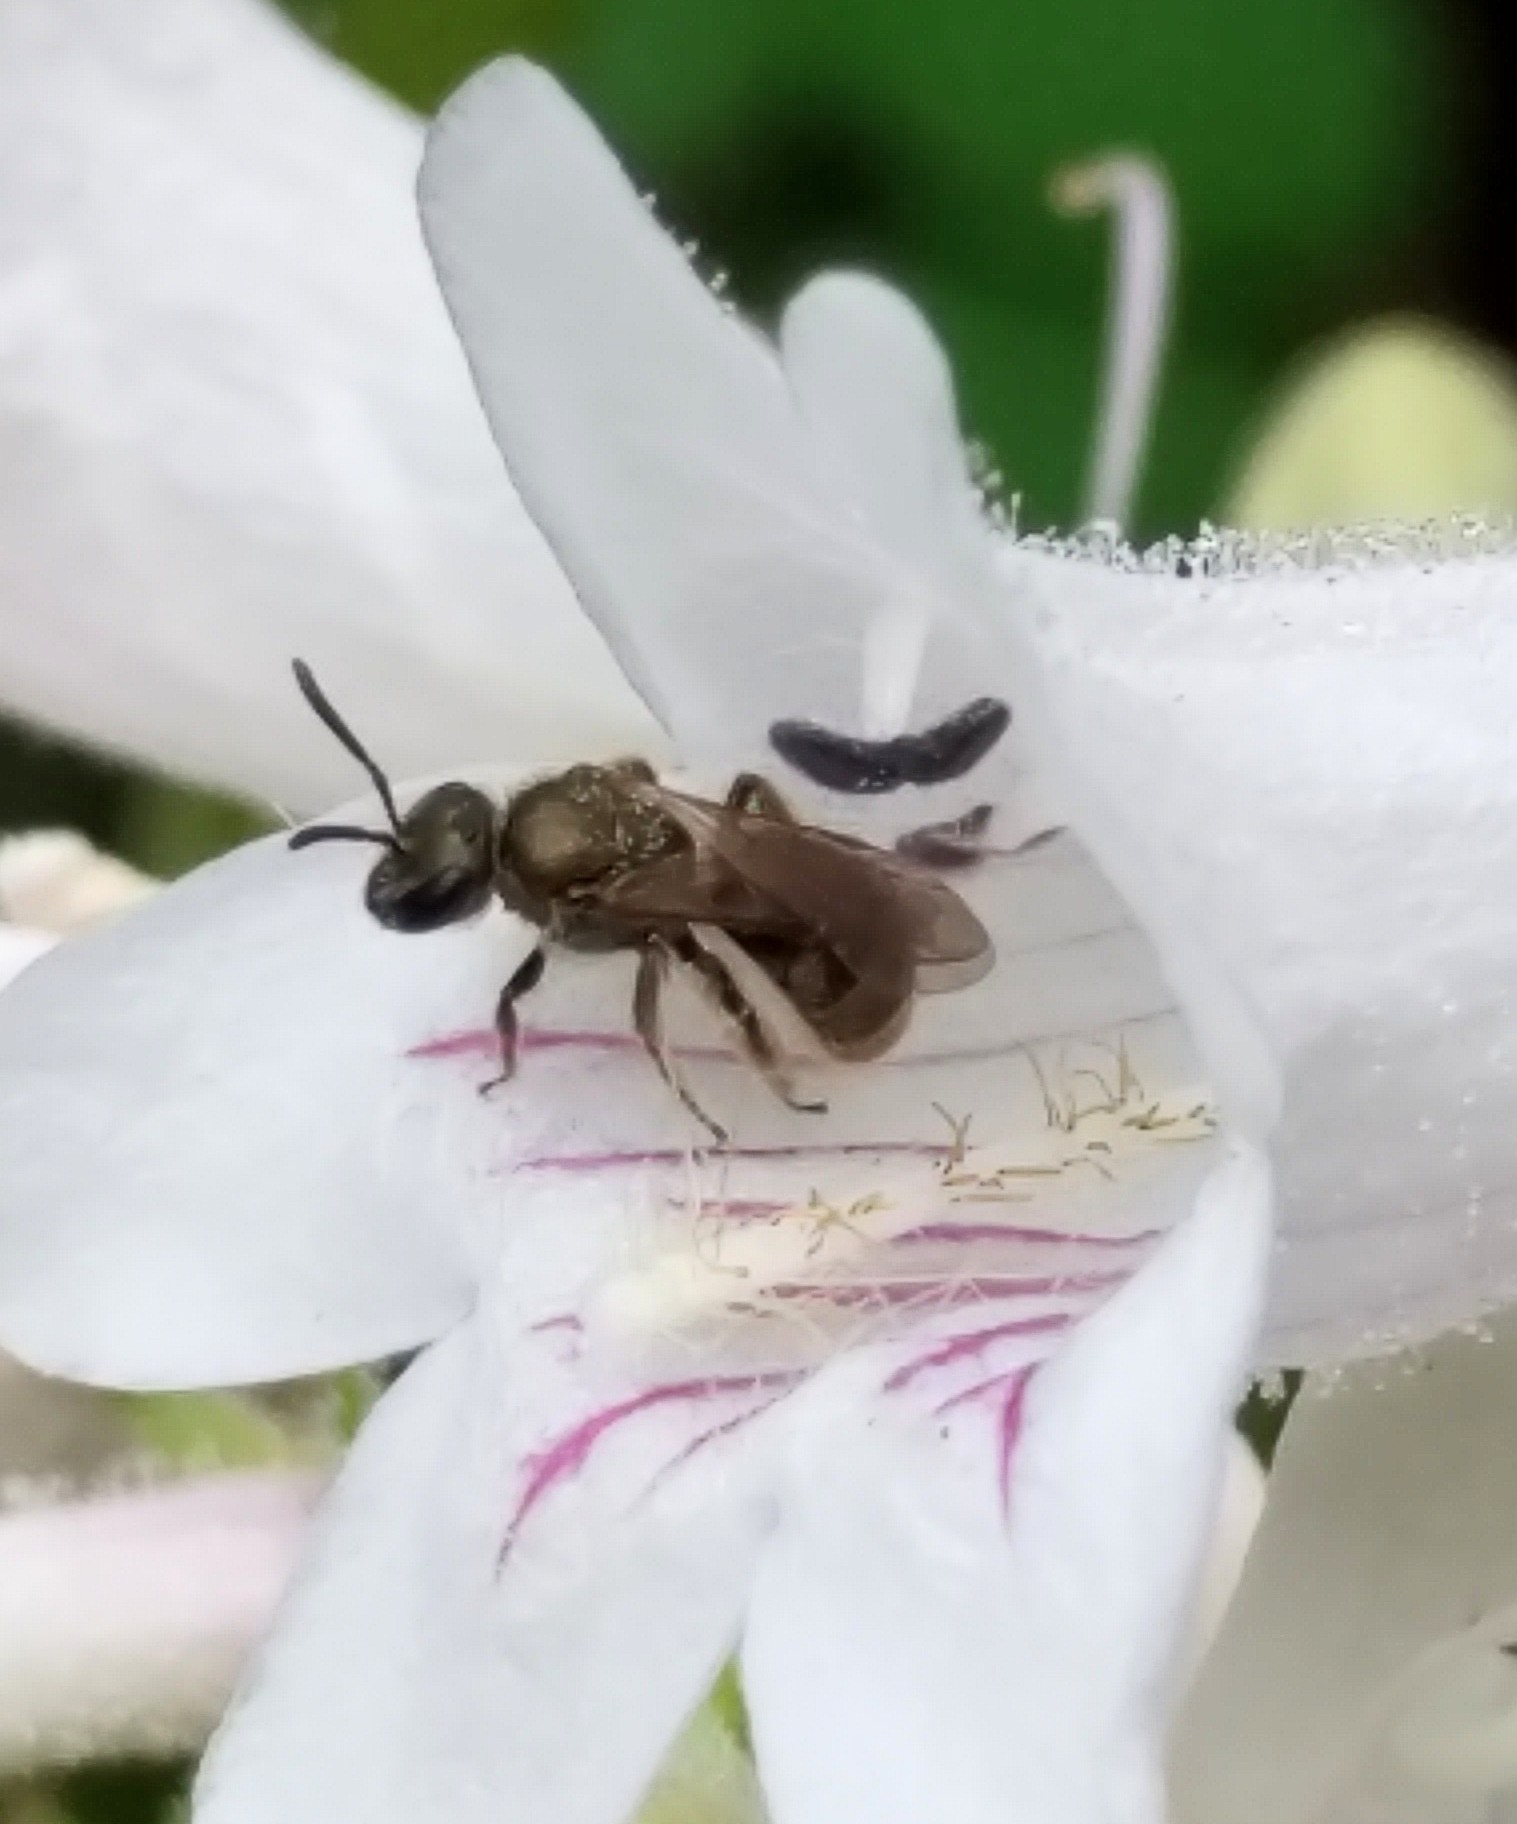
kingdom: Animalia
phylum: Arthropoda
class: Insecta
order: Hymenoptera
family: Halictidae
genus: Dialictus
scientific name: Dialictus
